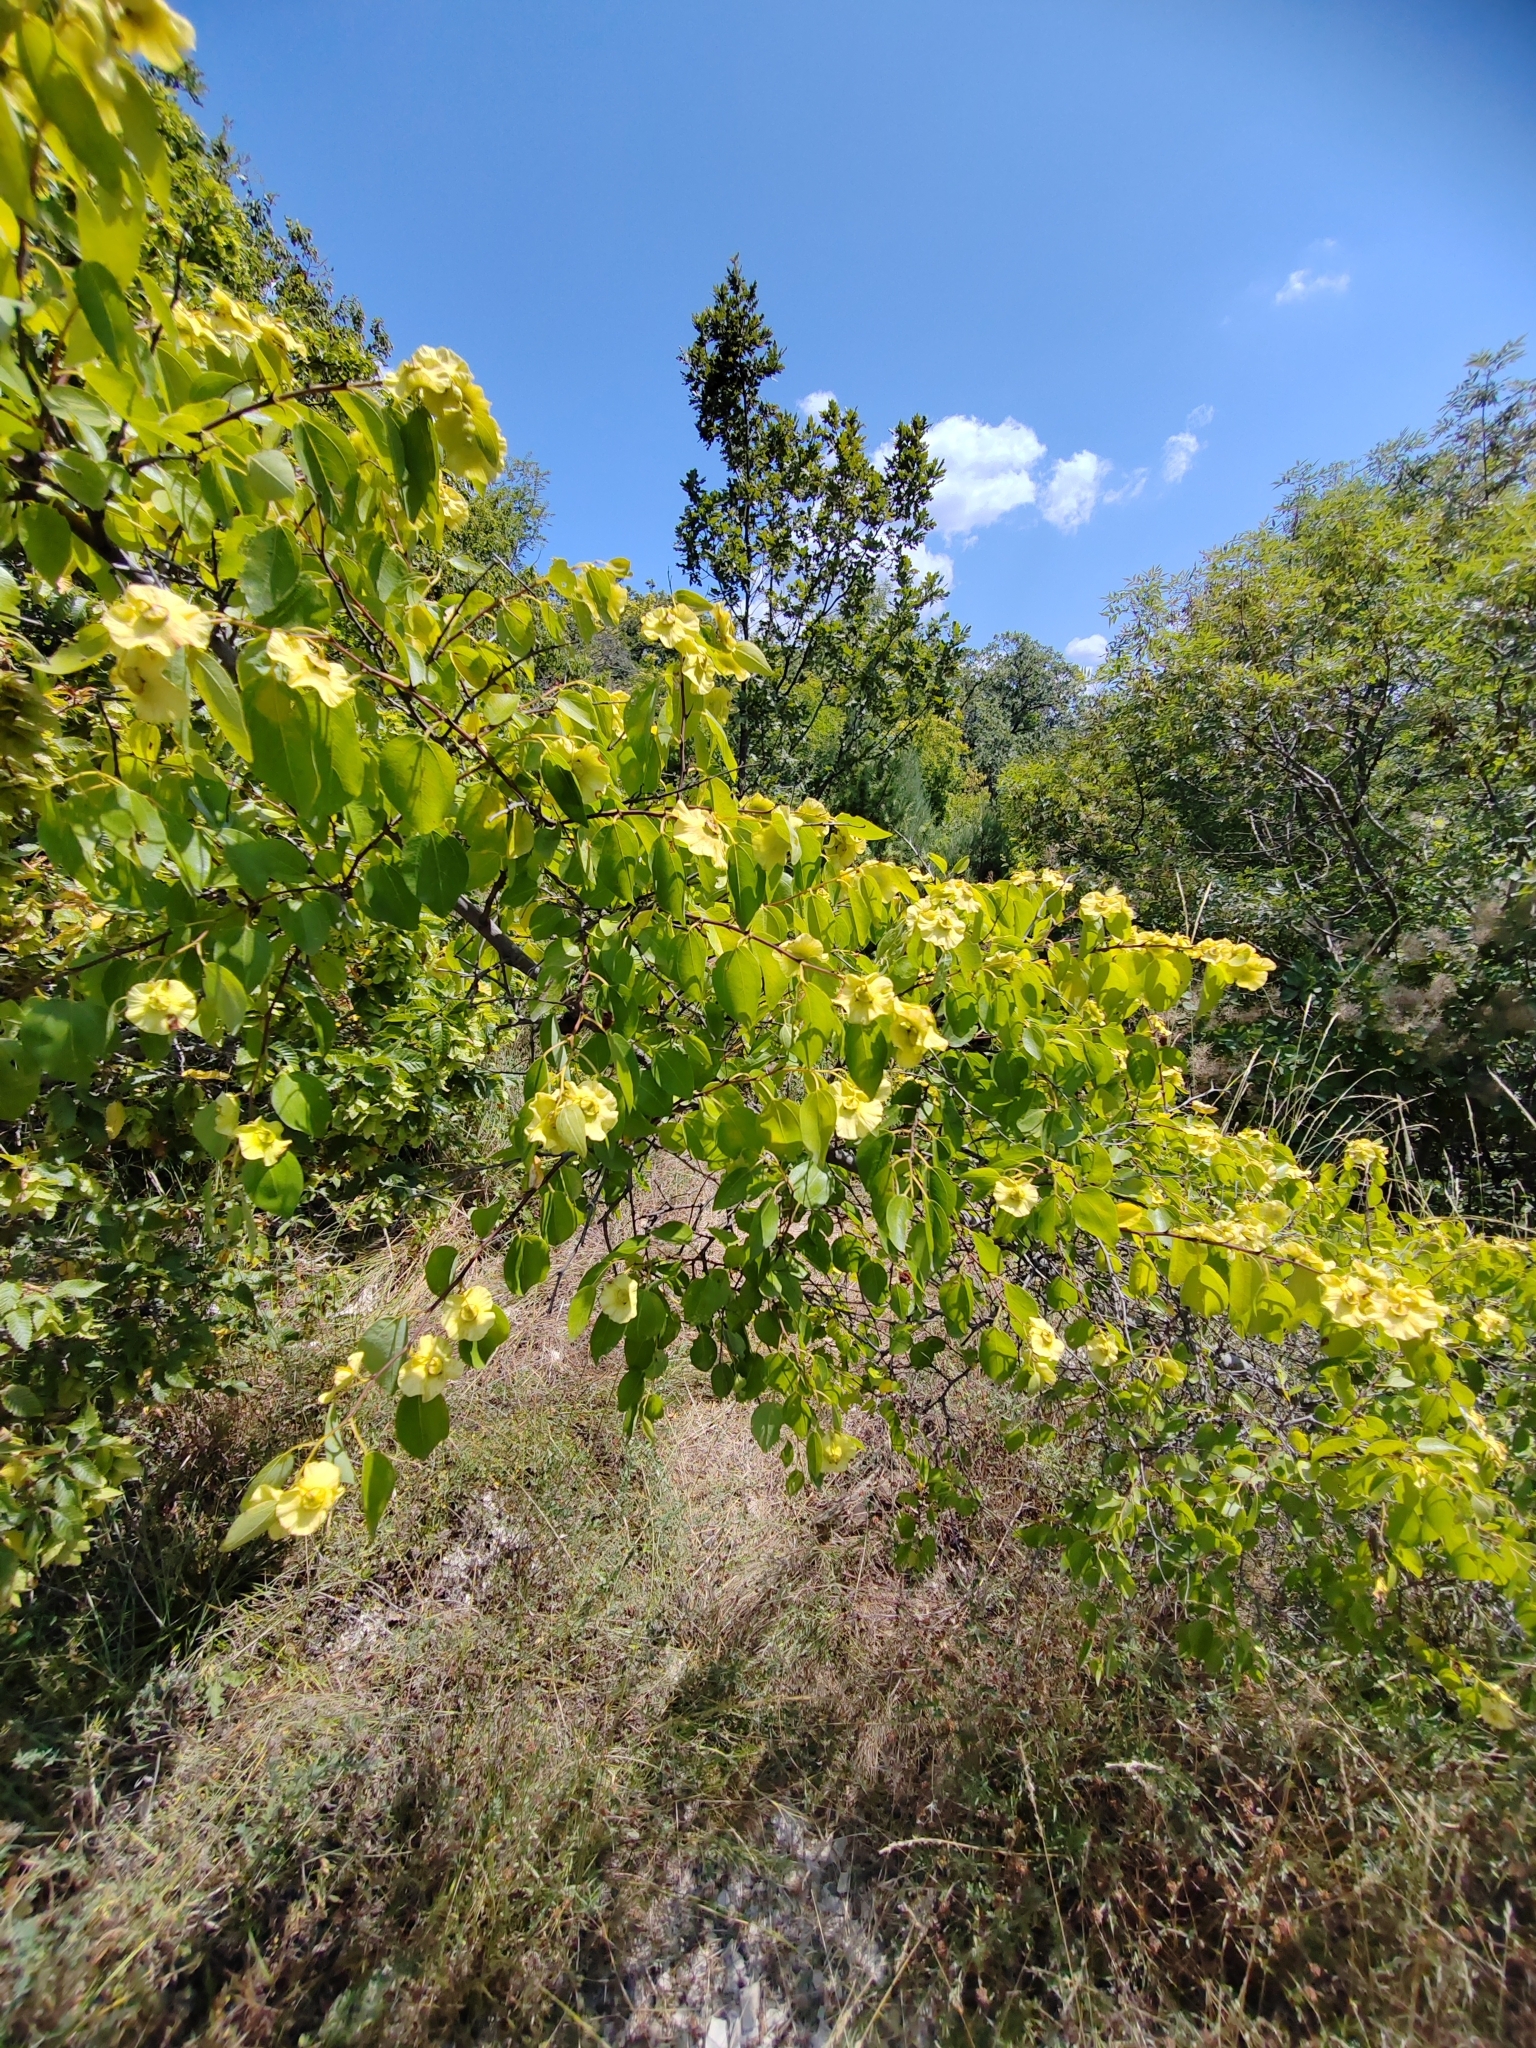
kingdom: Plantae
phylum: Tracheophyta
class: Magnoliopsida
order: Rosales
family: Rhamnaceae
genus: Paliurus
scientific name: Paliurus spina-christi
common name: Jeruselem thorn
